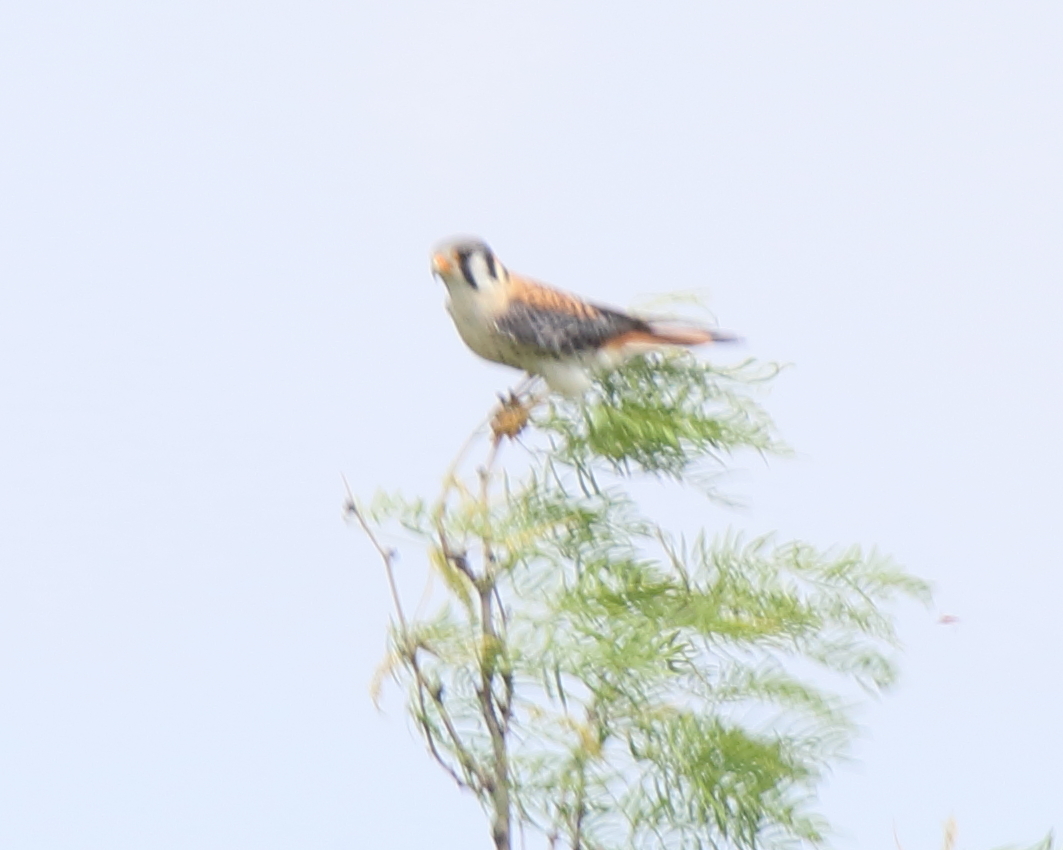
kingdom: Animalia
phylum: Chordata
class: Aves
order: Falconiformes
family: Falconidae
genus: Falco
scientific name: Falco sparverius
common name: American kestrel
